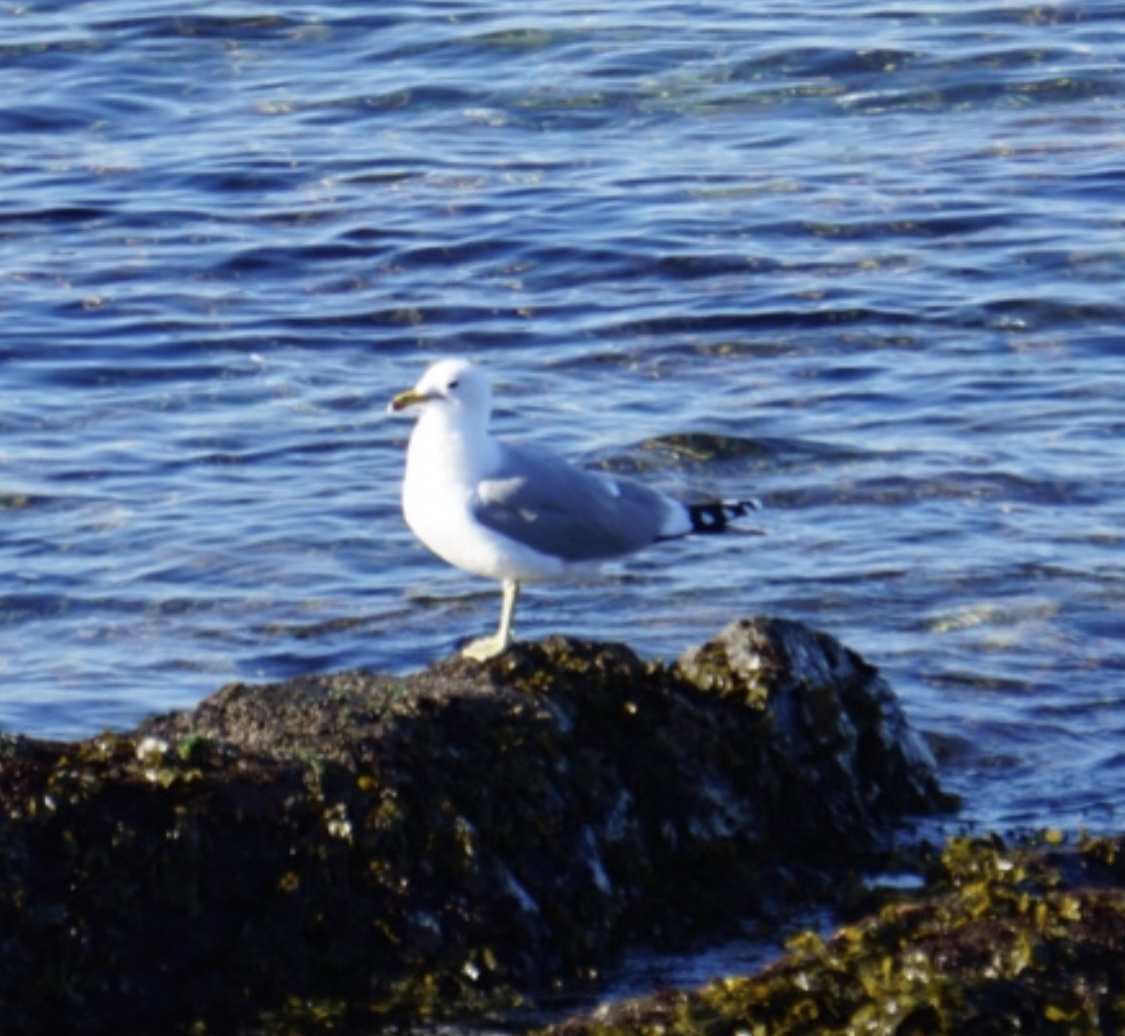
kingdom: Animalia
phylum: Chordata
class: Aves
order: Charadriiformes
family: Laridae
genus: Larus
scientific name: Larus californicus
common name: California gull
